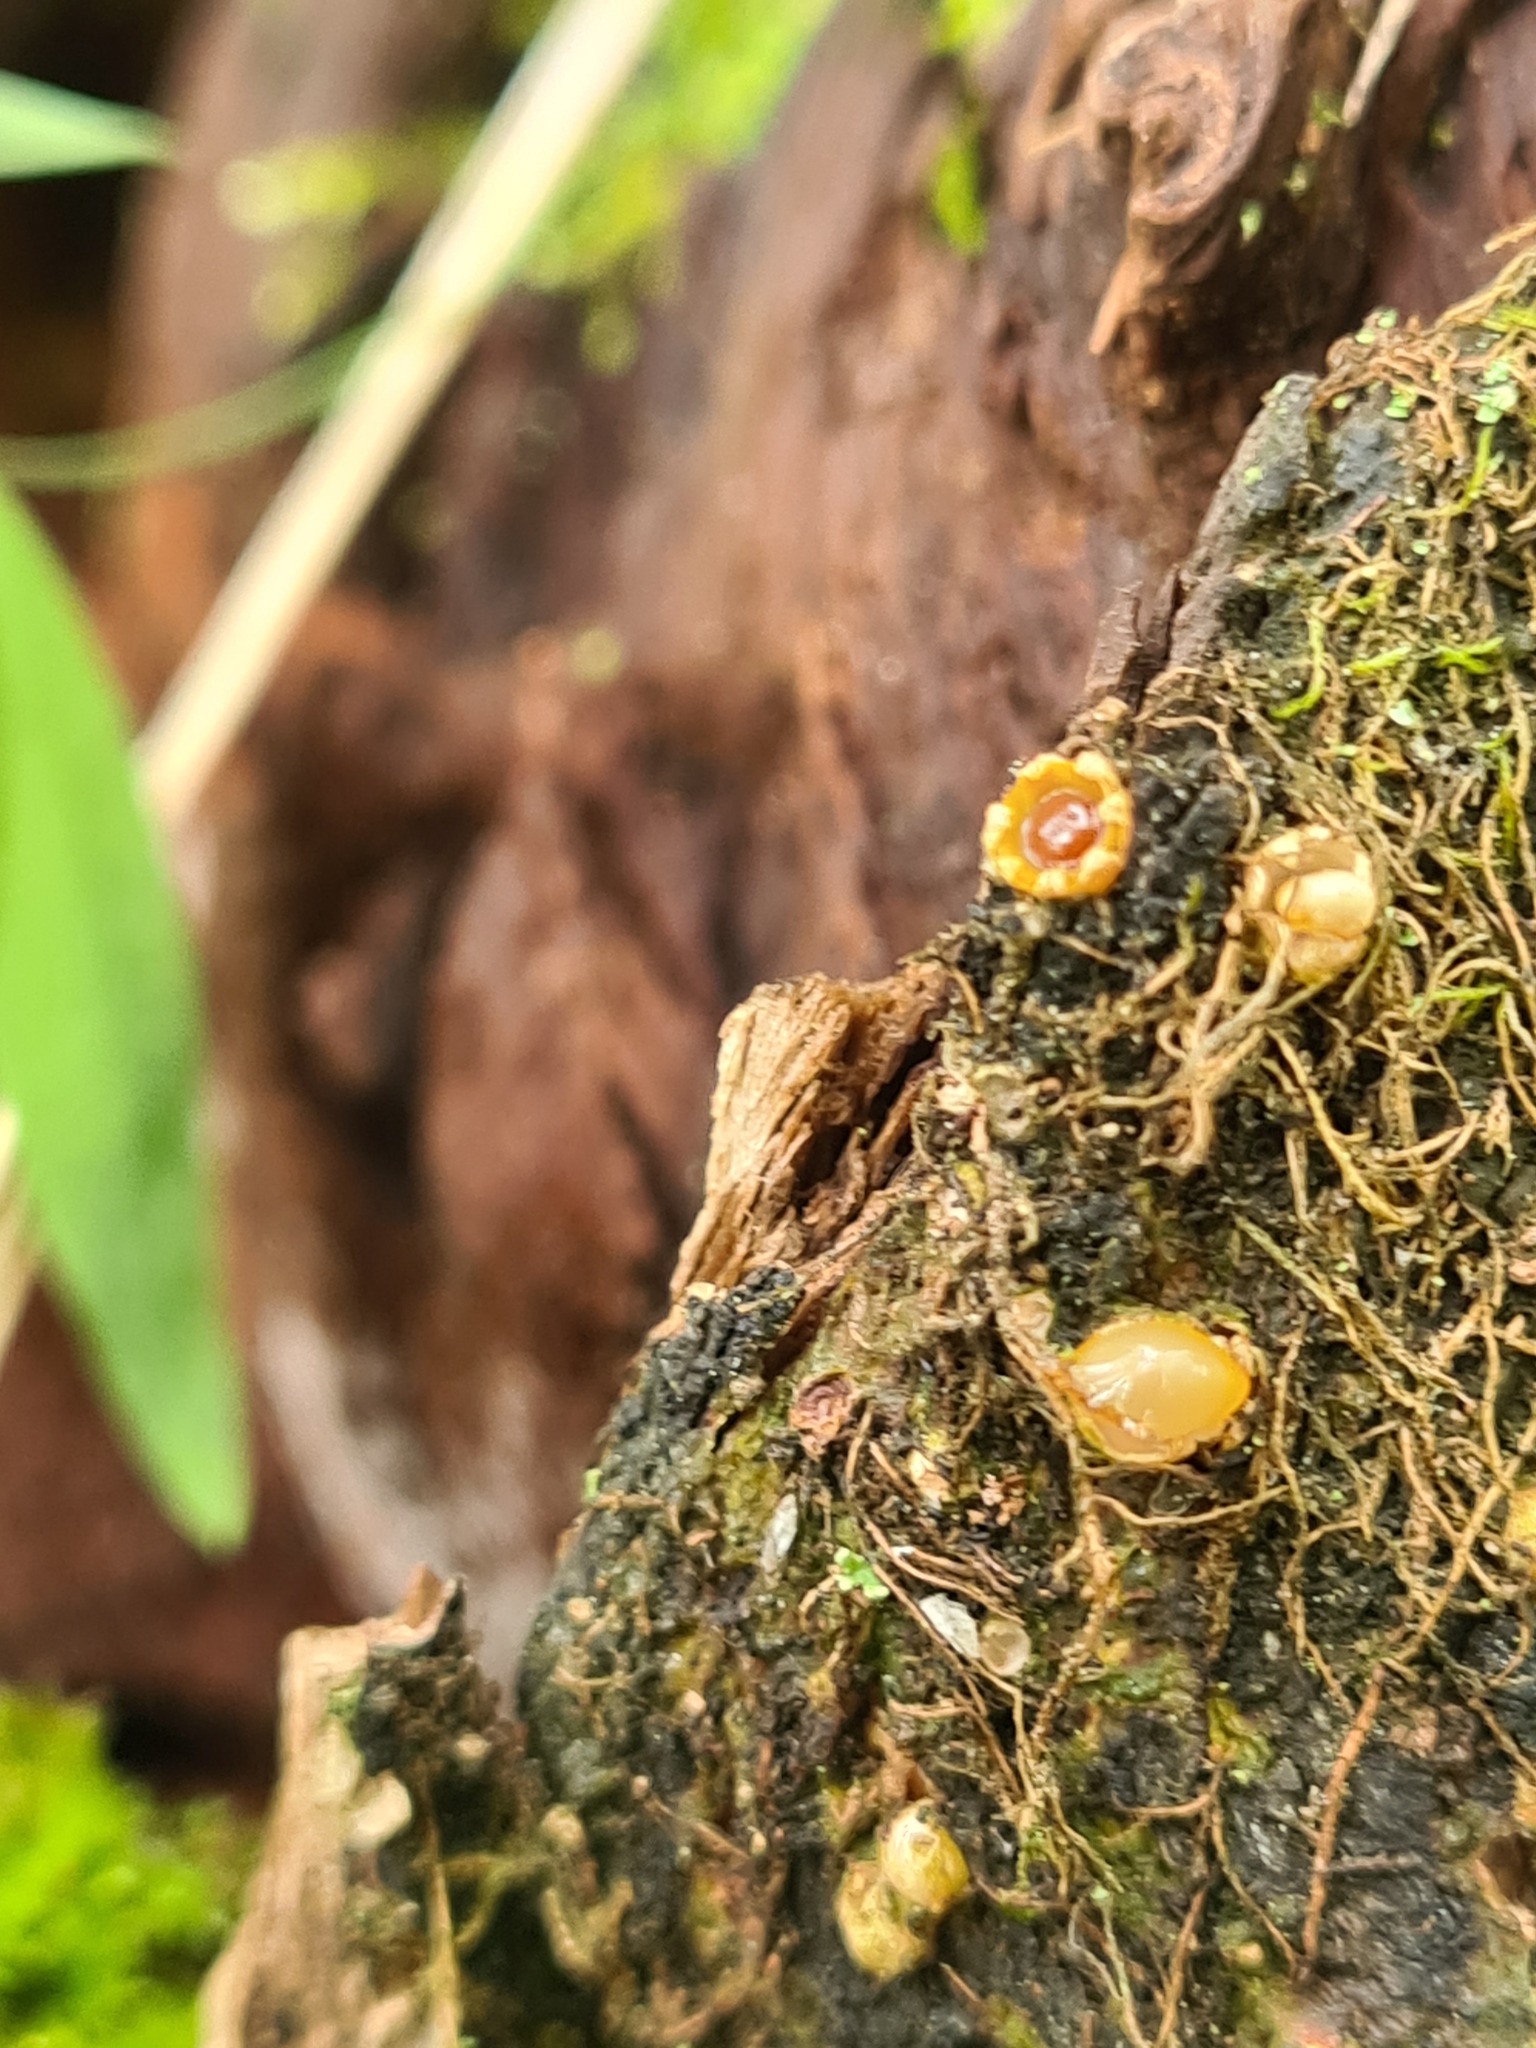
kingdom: Fungi
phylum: Basidiomycota
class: Agaricomycetes
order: Geastrales
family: Geastraceae
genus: Sphaerobolus
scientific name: Sphaerobolus stellatus
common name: Cannon fungus
